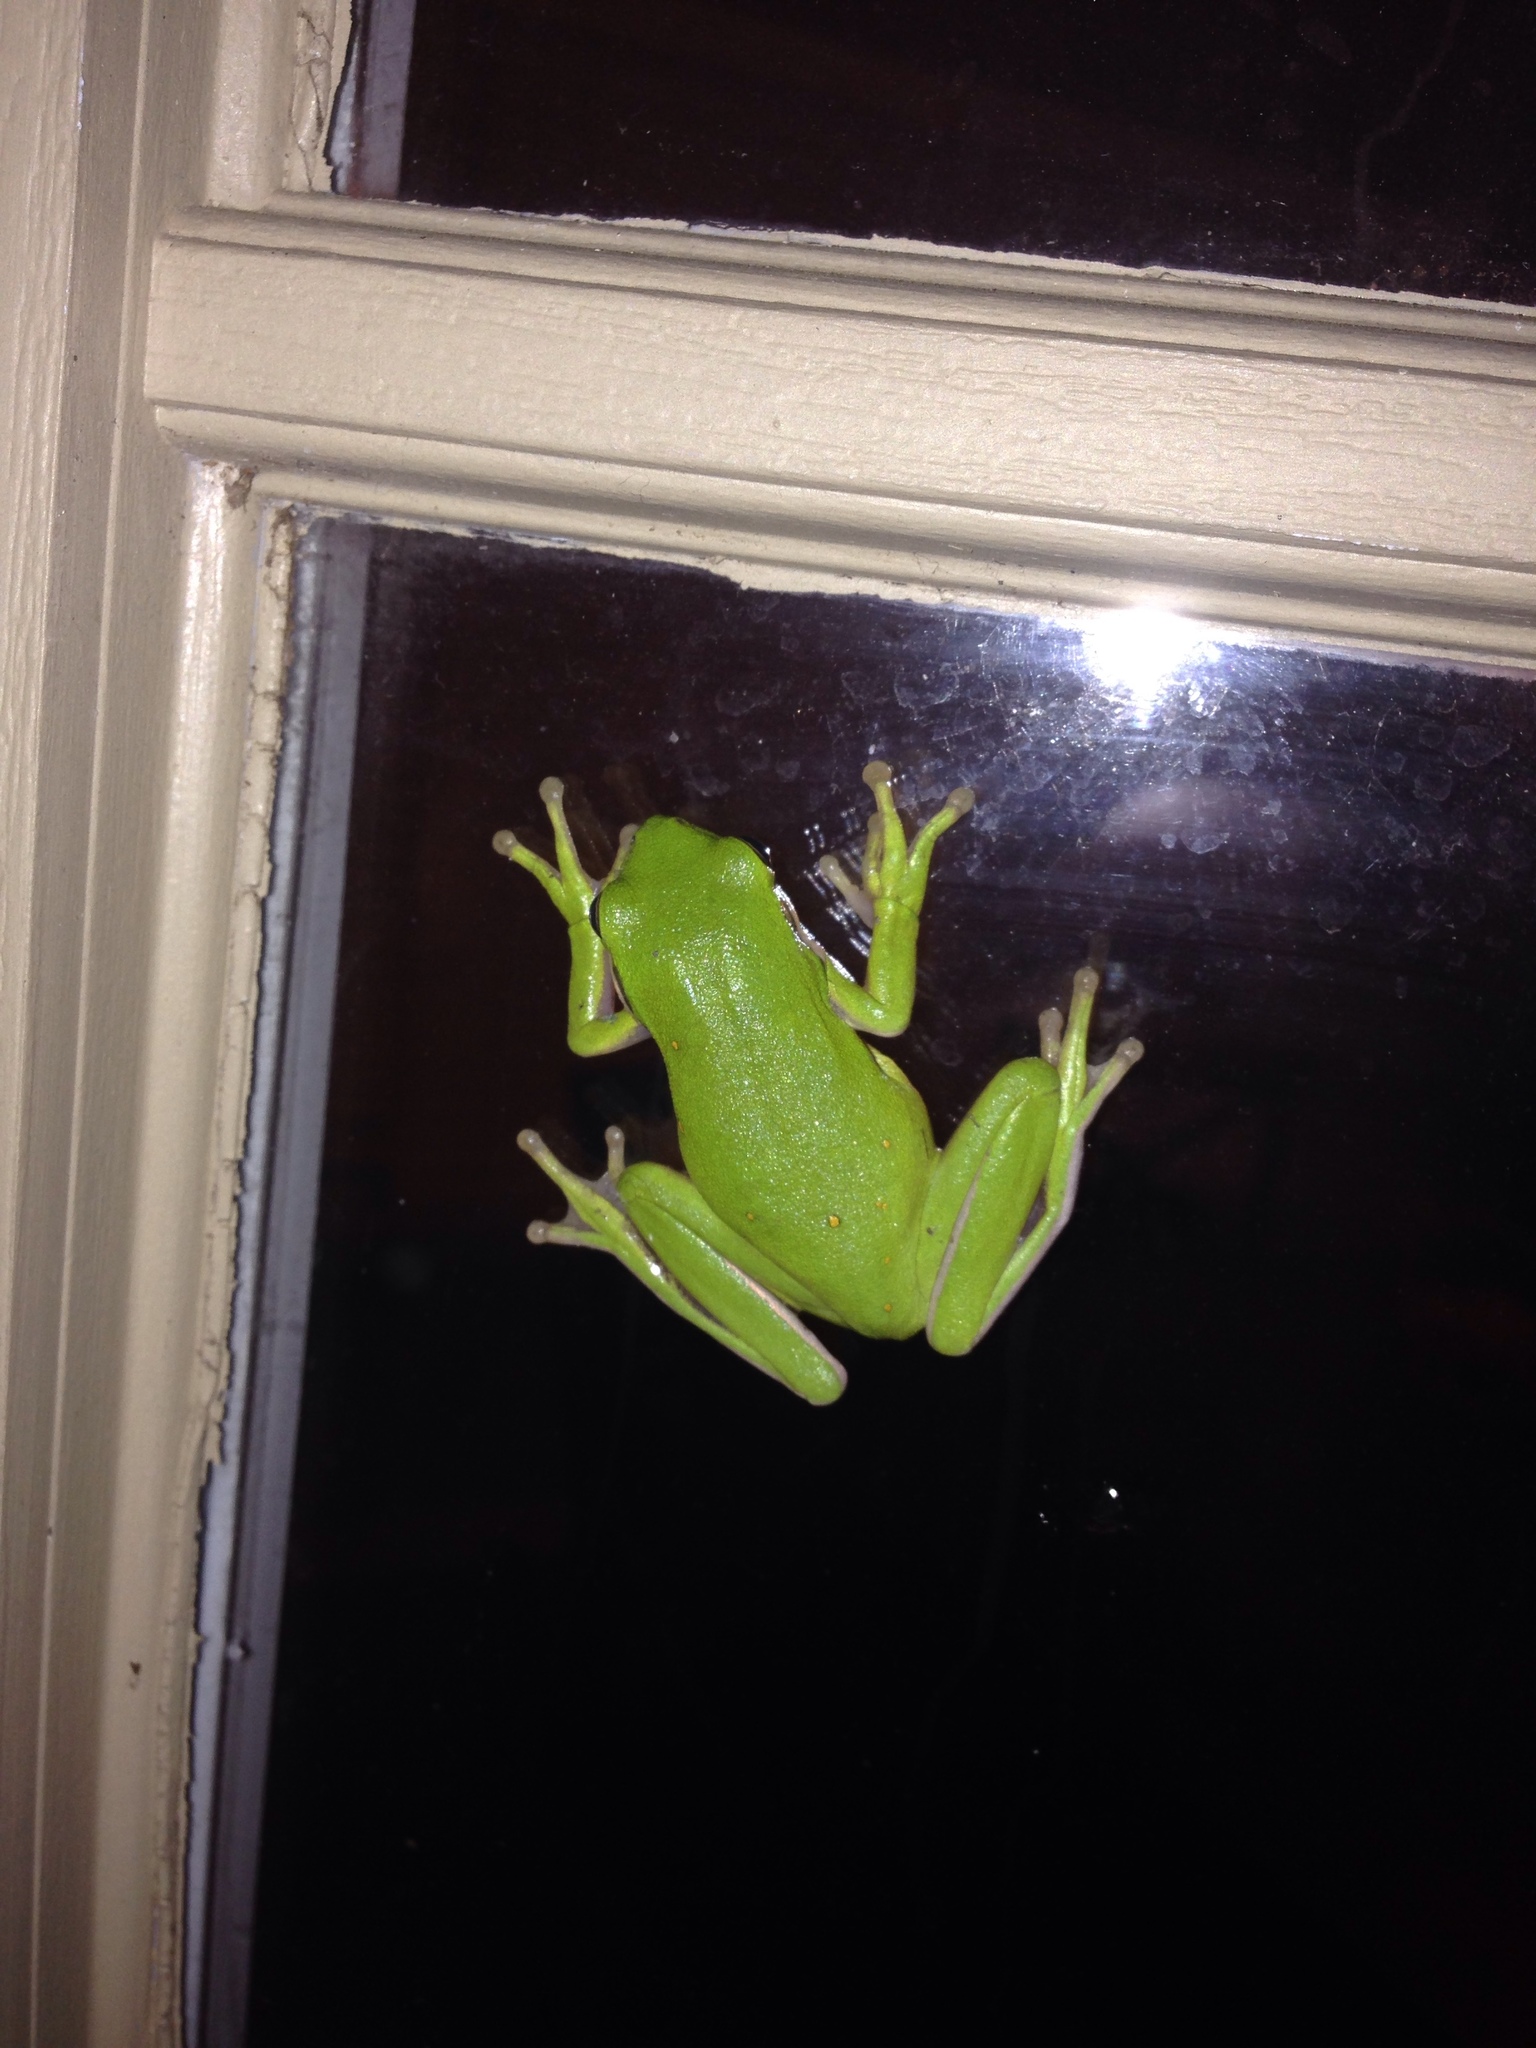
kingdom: Animalia
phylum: Chordata
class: Amphibia
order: Anura
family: Hylidae
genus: Dryophytes
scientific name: Dryophytes cinereus
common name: Green treefrog
